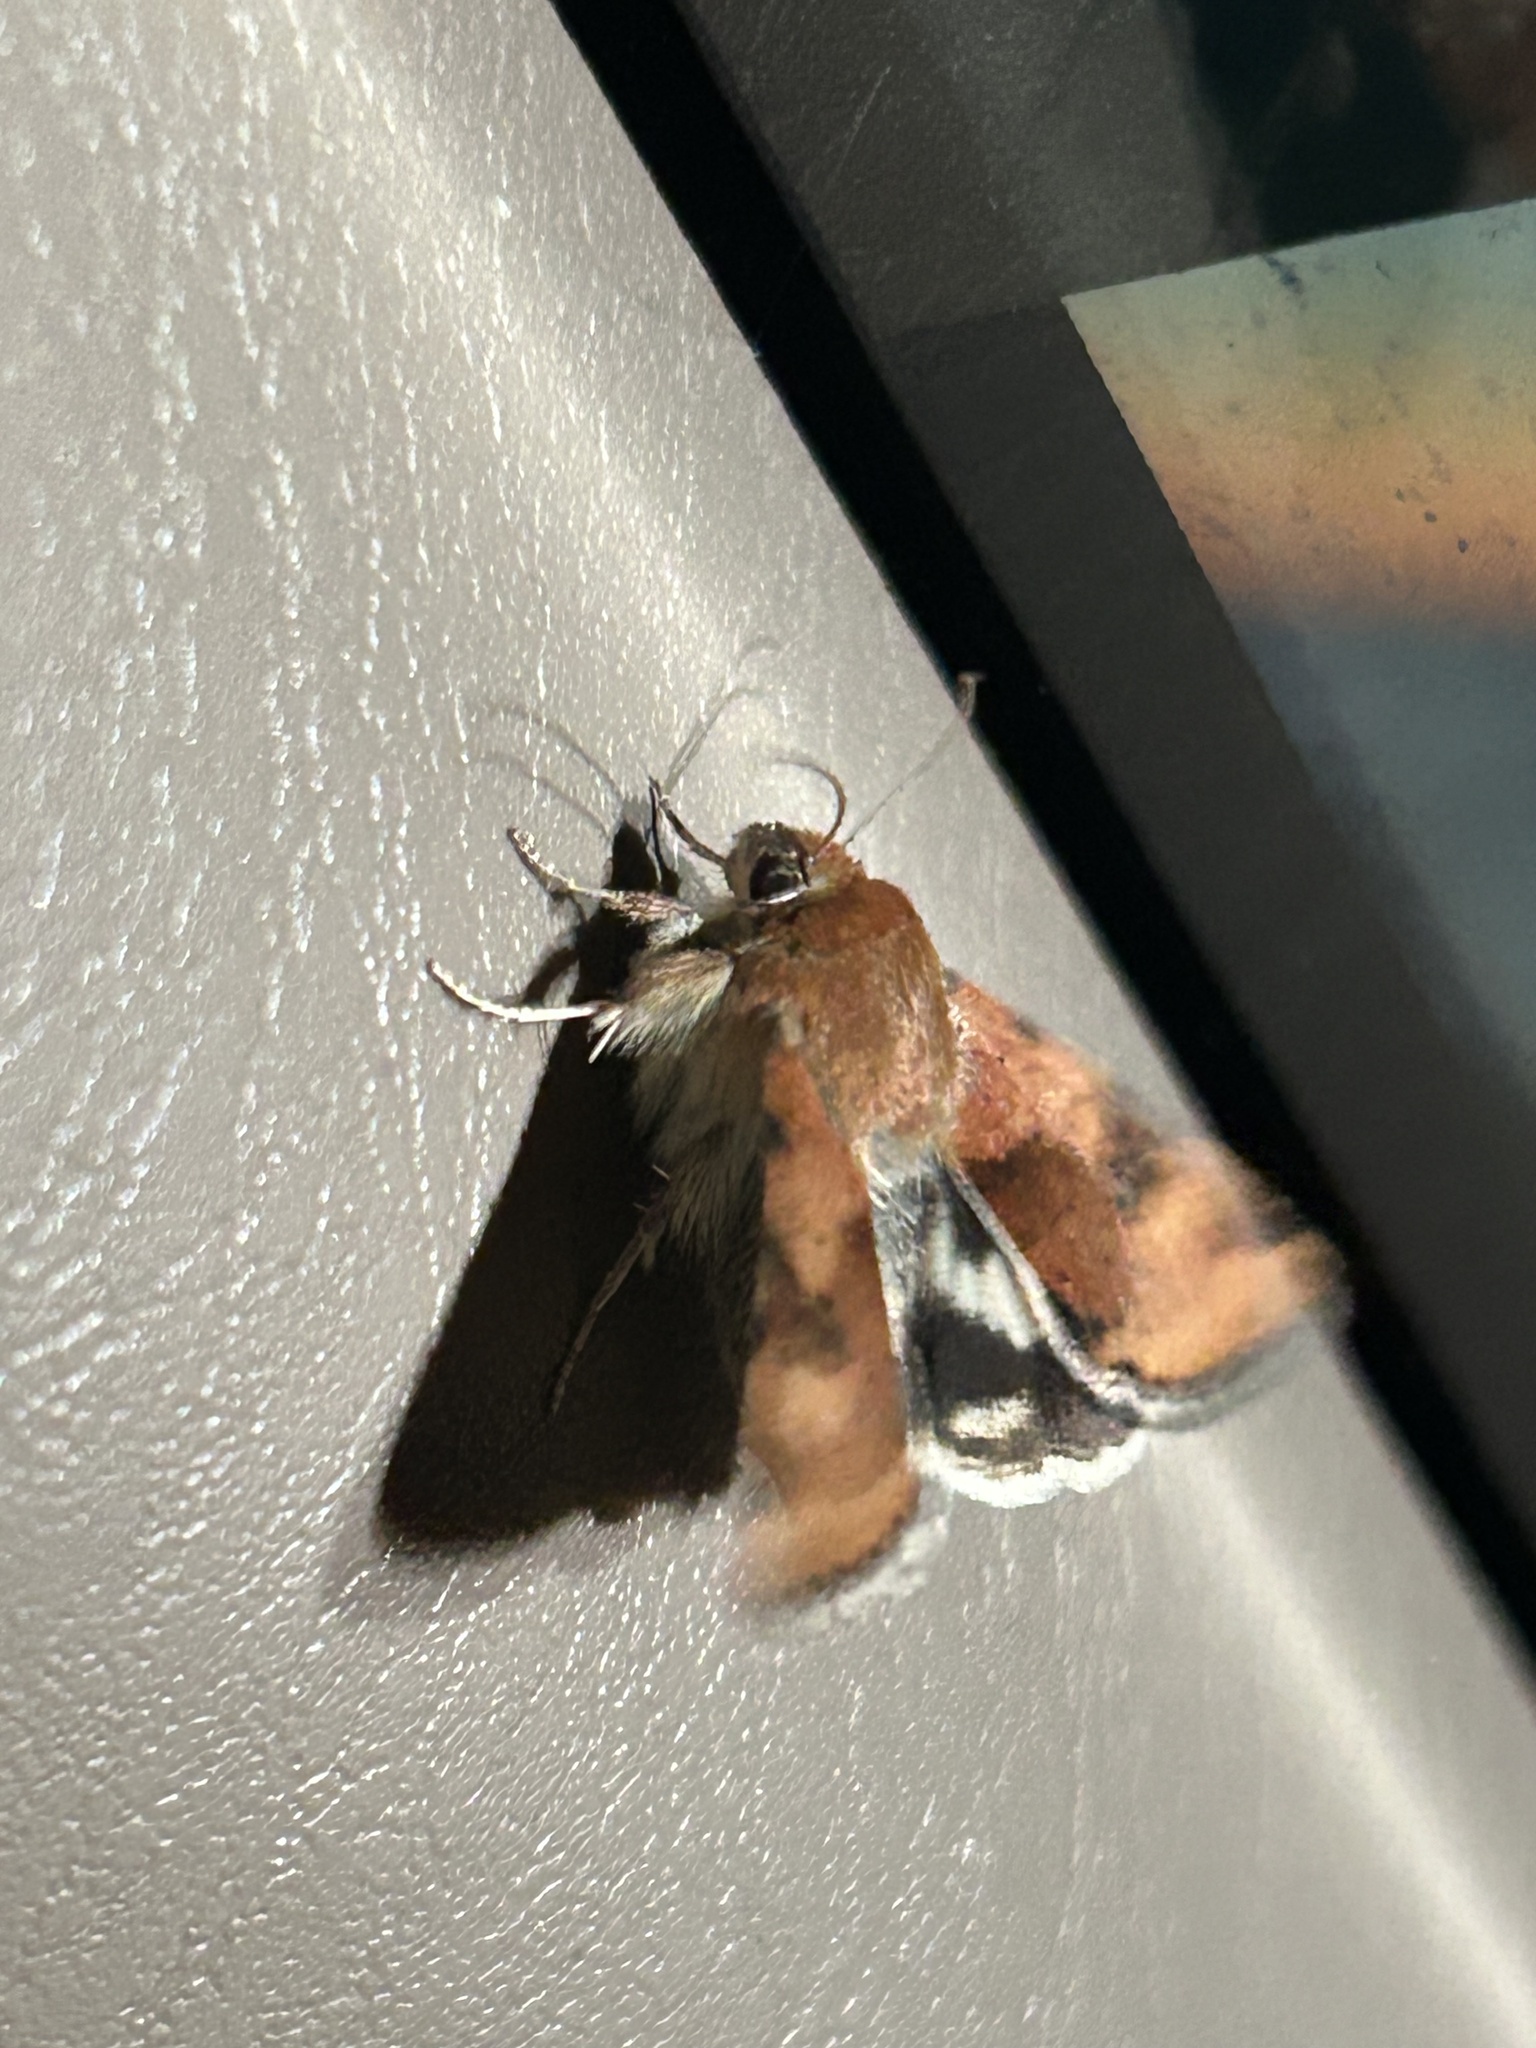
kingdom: Animalia
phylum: Arthropoda
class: Insecta
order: Lepidoptera
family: Noctuidae
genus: Heliothis
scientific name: Heliothis phloxiphaga
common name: Darker spotted straw moth
